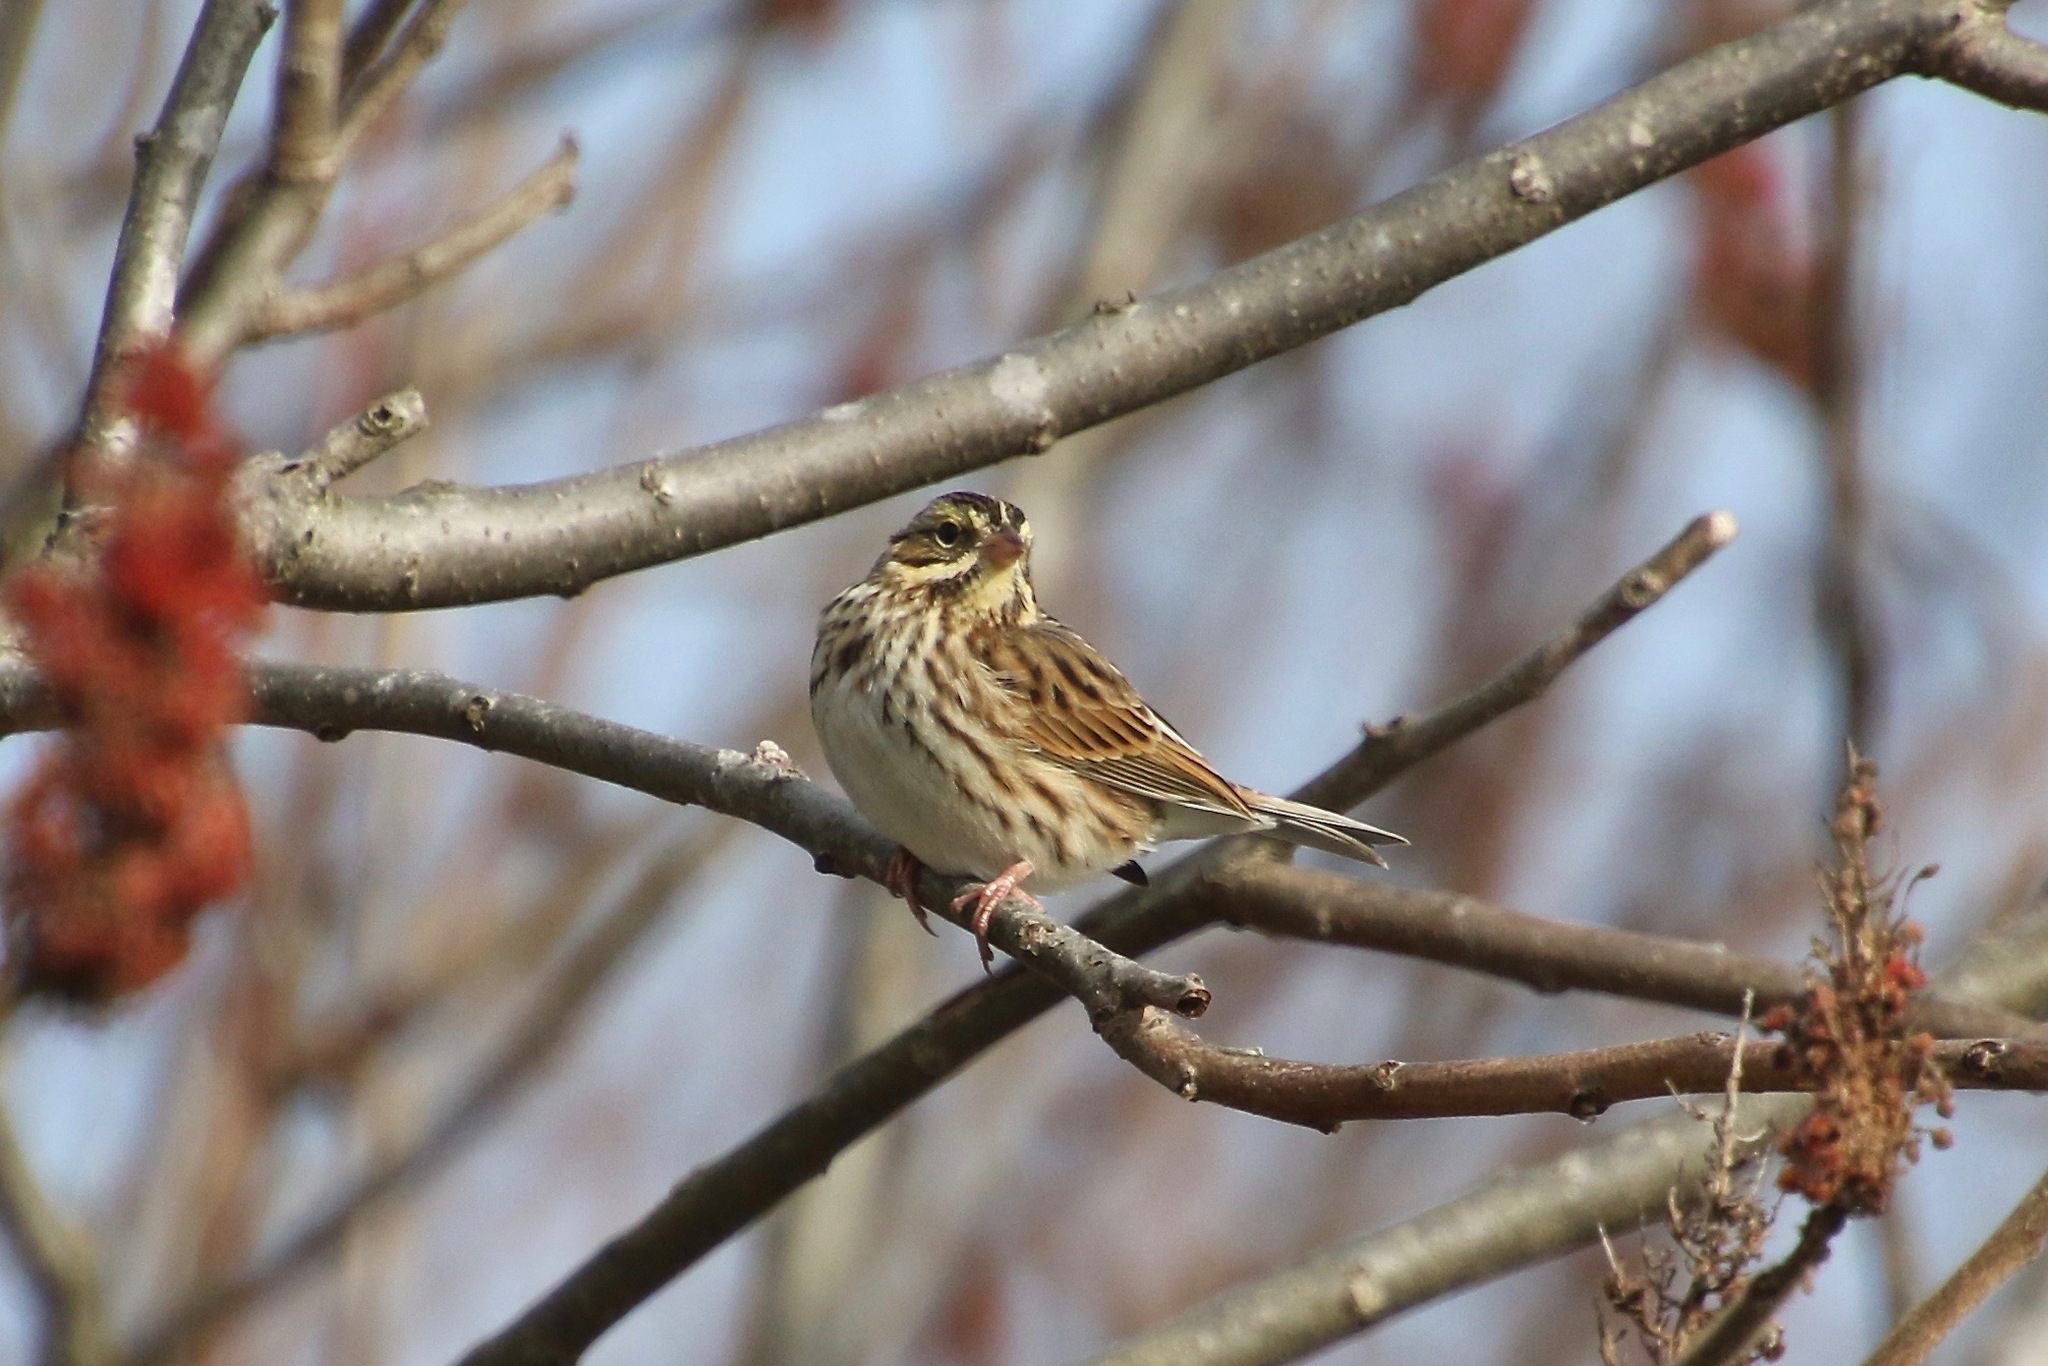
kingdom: Animalia
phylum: Chordata
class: Aves
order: Passeriformes
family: Passerellidae
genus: Passerculus
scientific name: Passerculus sandwichensis
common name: Savannah sparrow
